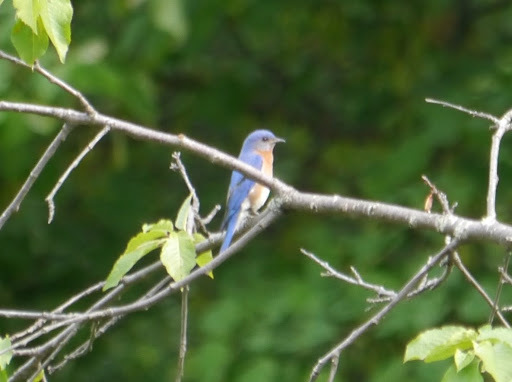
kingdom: Animalia
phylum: Chordata
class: Aves
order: Passeriformes
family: Turdidae
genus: Sialia
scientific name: Sialia sialis
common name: Eastern bluebird
